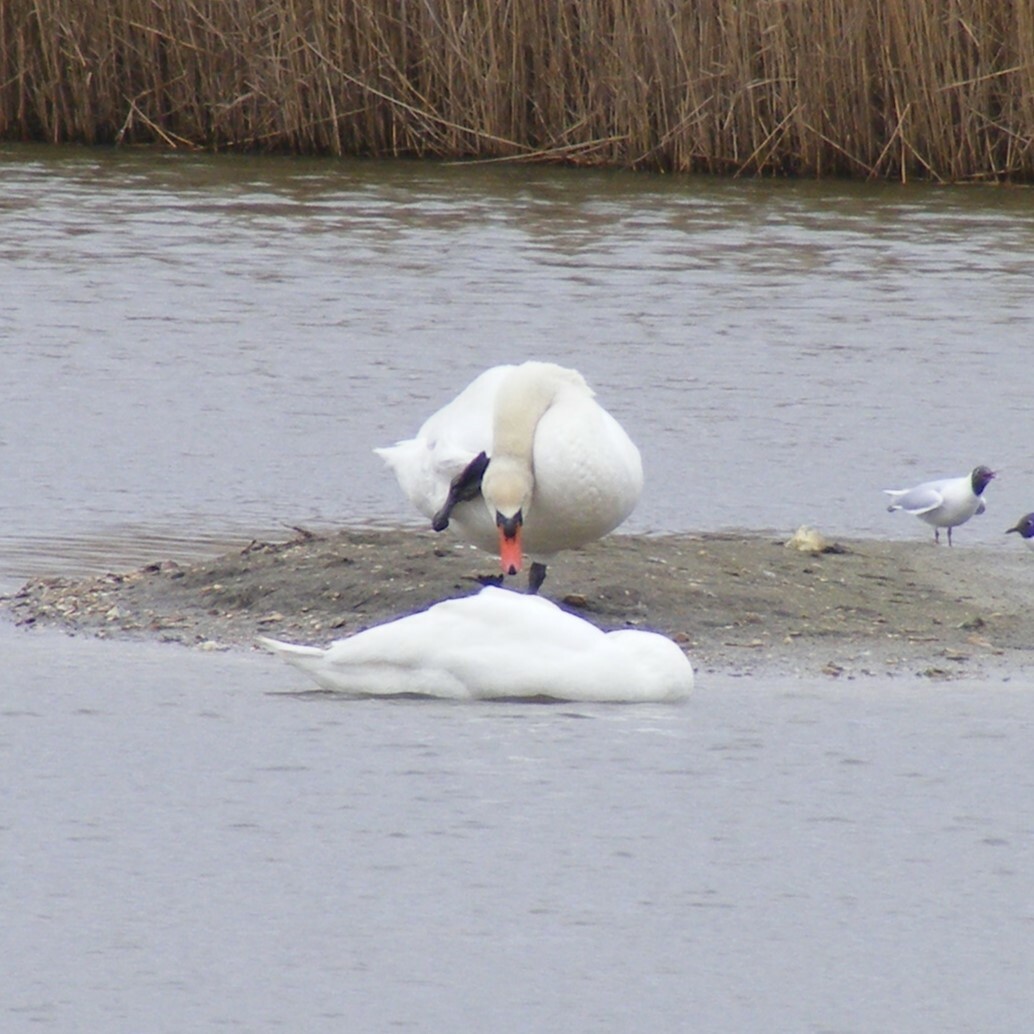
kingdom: Animalia
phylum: Chordata
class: Aves
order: Anseriformes
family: Anatidae
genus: Cygnus
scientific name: Cygnus olor
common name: Mute swan
